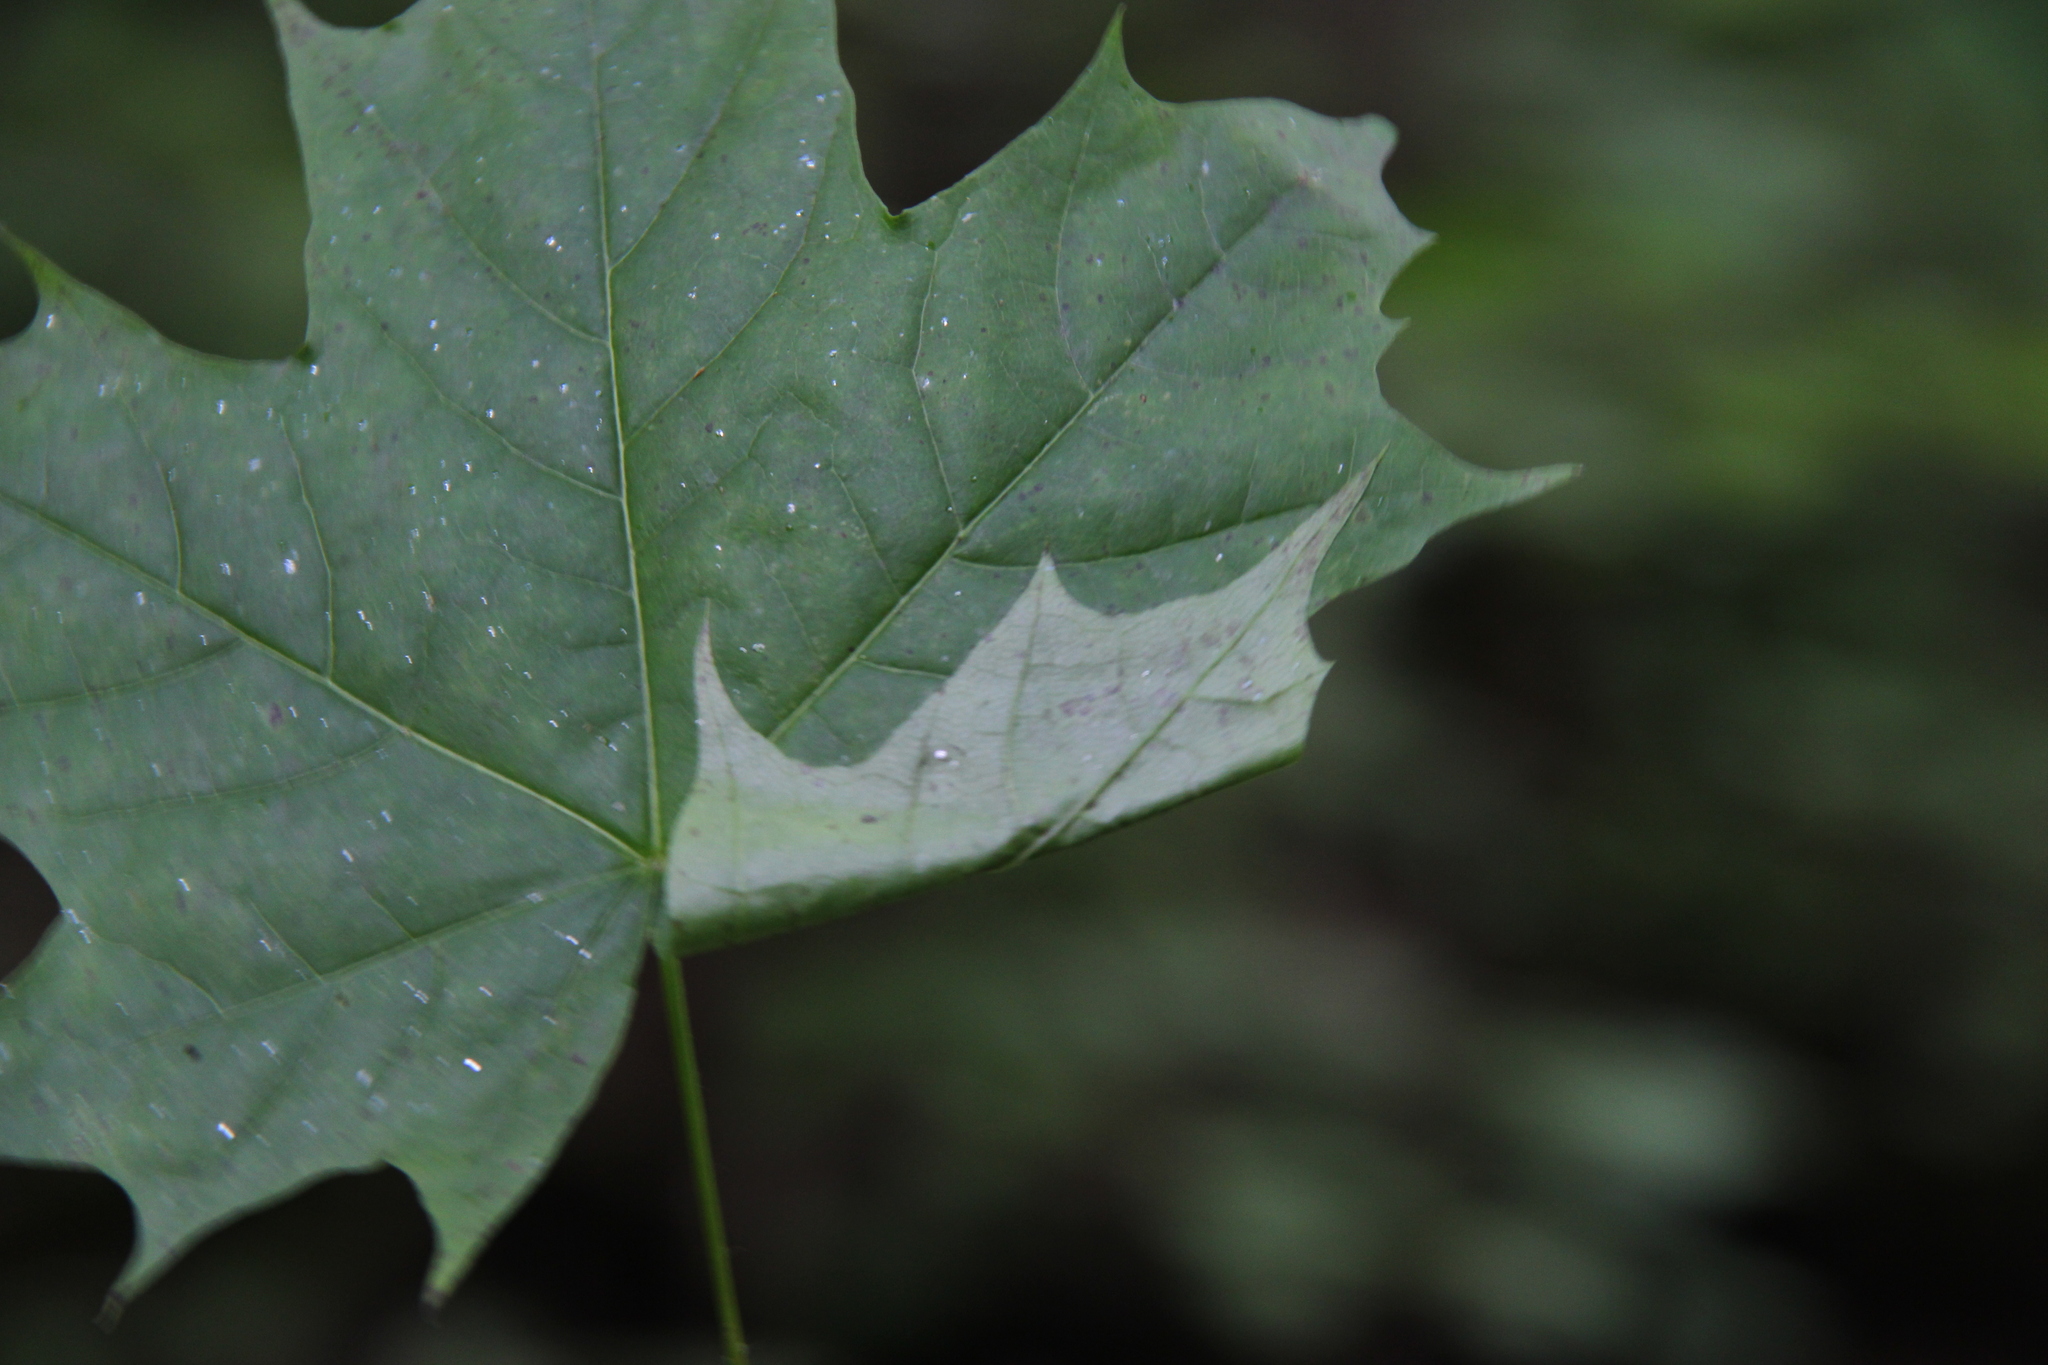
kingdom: Plantae
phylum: Tracheophyta
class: Magnoliopsida
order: Sapindales
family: Sapindaceae
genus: Acer
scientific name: Acer platanoides
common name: Norway maple
